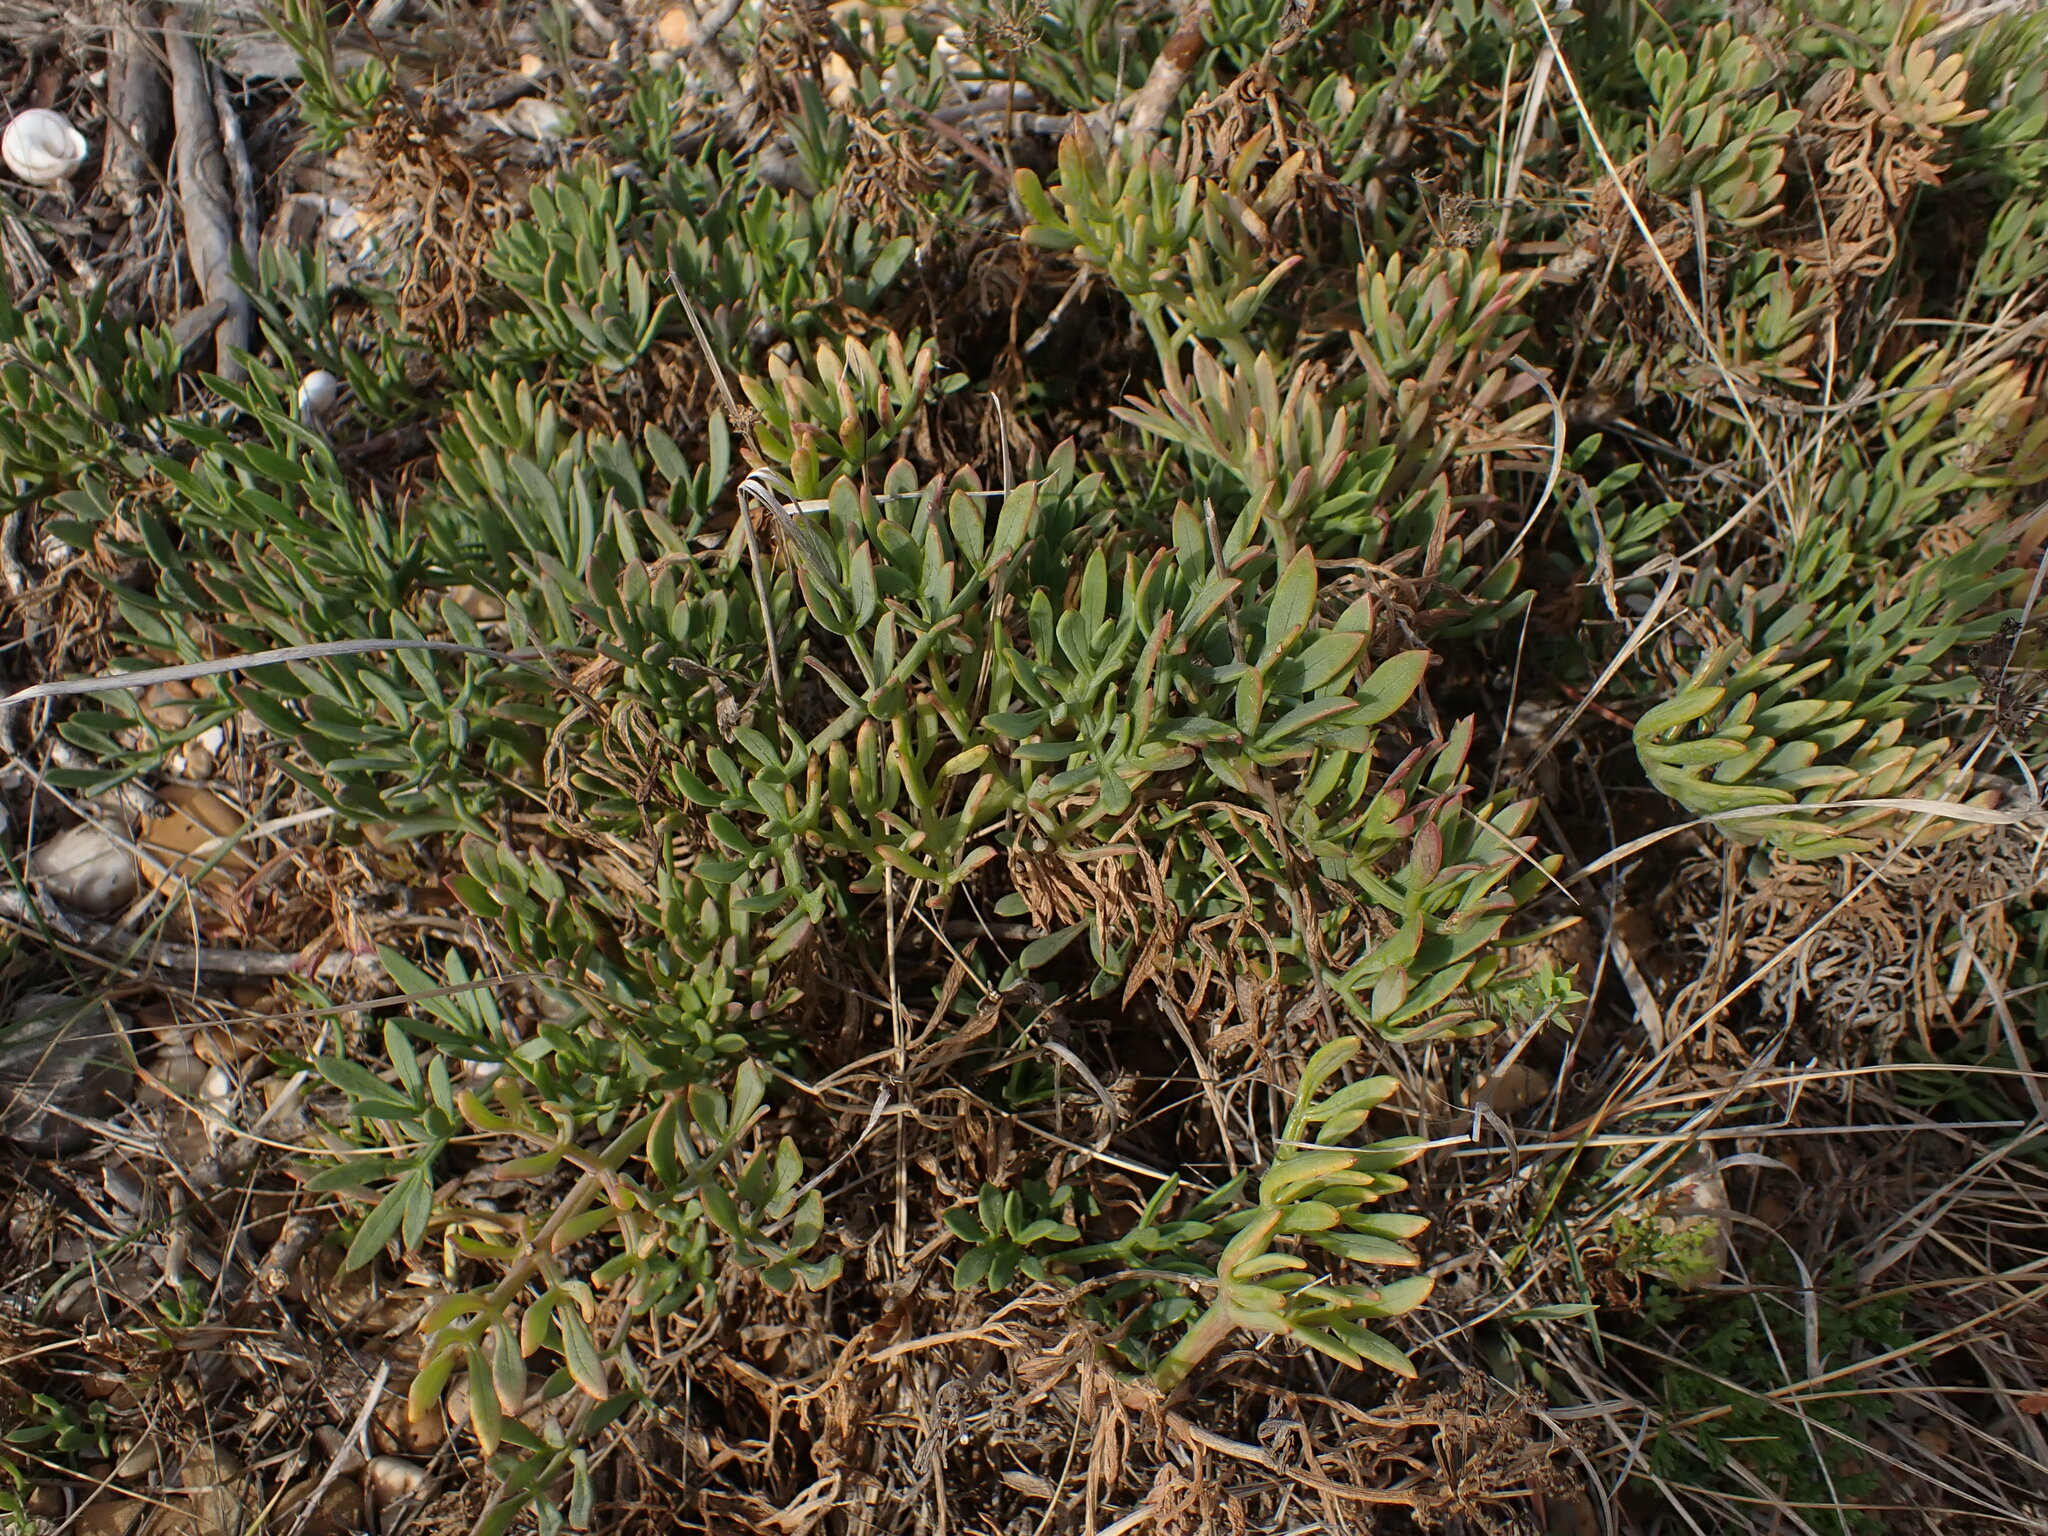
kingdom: Plantae
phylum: Tracheophyta
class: Magnoliopsida
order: Apiales
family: Apiaceae
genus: Crithmum
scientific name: Crithmum maritimum
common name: Rock samphire
